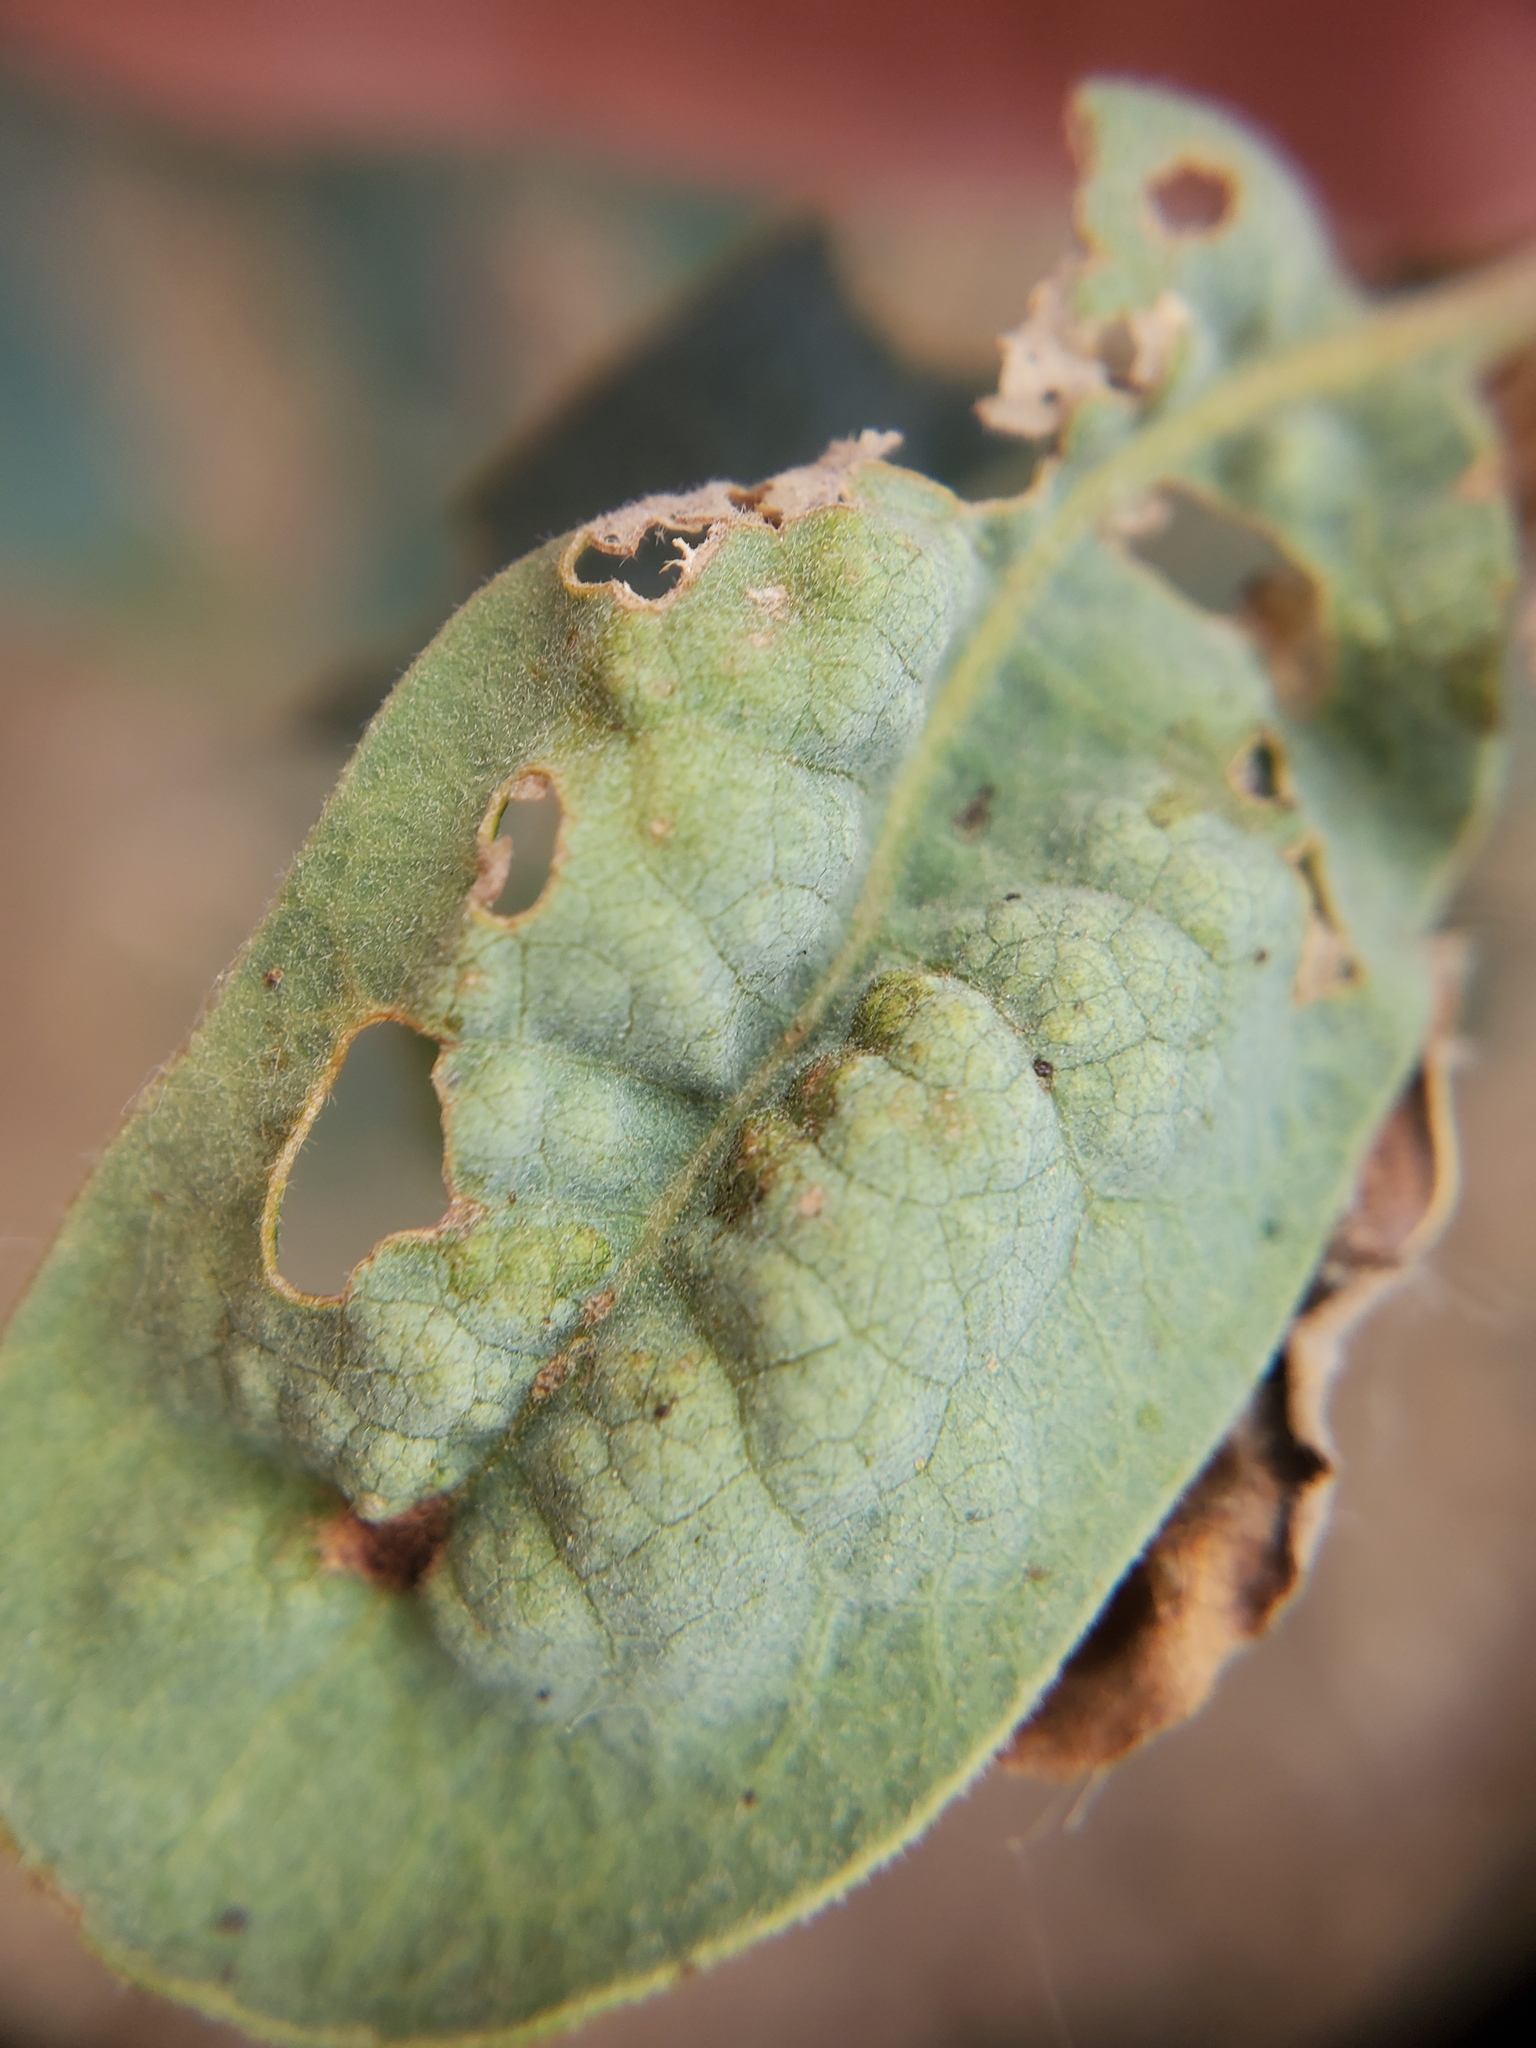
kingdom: Fungi
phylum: Ascomycota
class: Taphrinomycetes
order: Taphrinales
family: Taphrinaceae
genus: Taphrina
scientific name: Taphrina caerulescens
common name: Oak leaf blister
